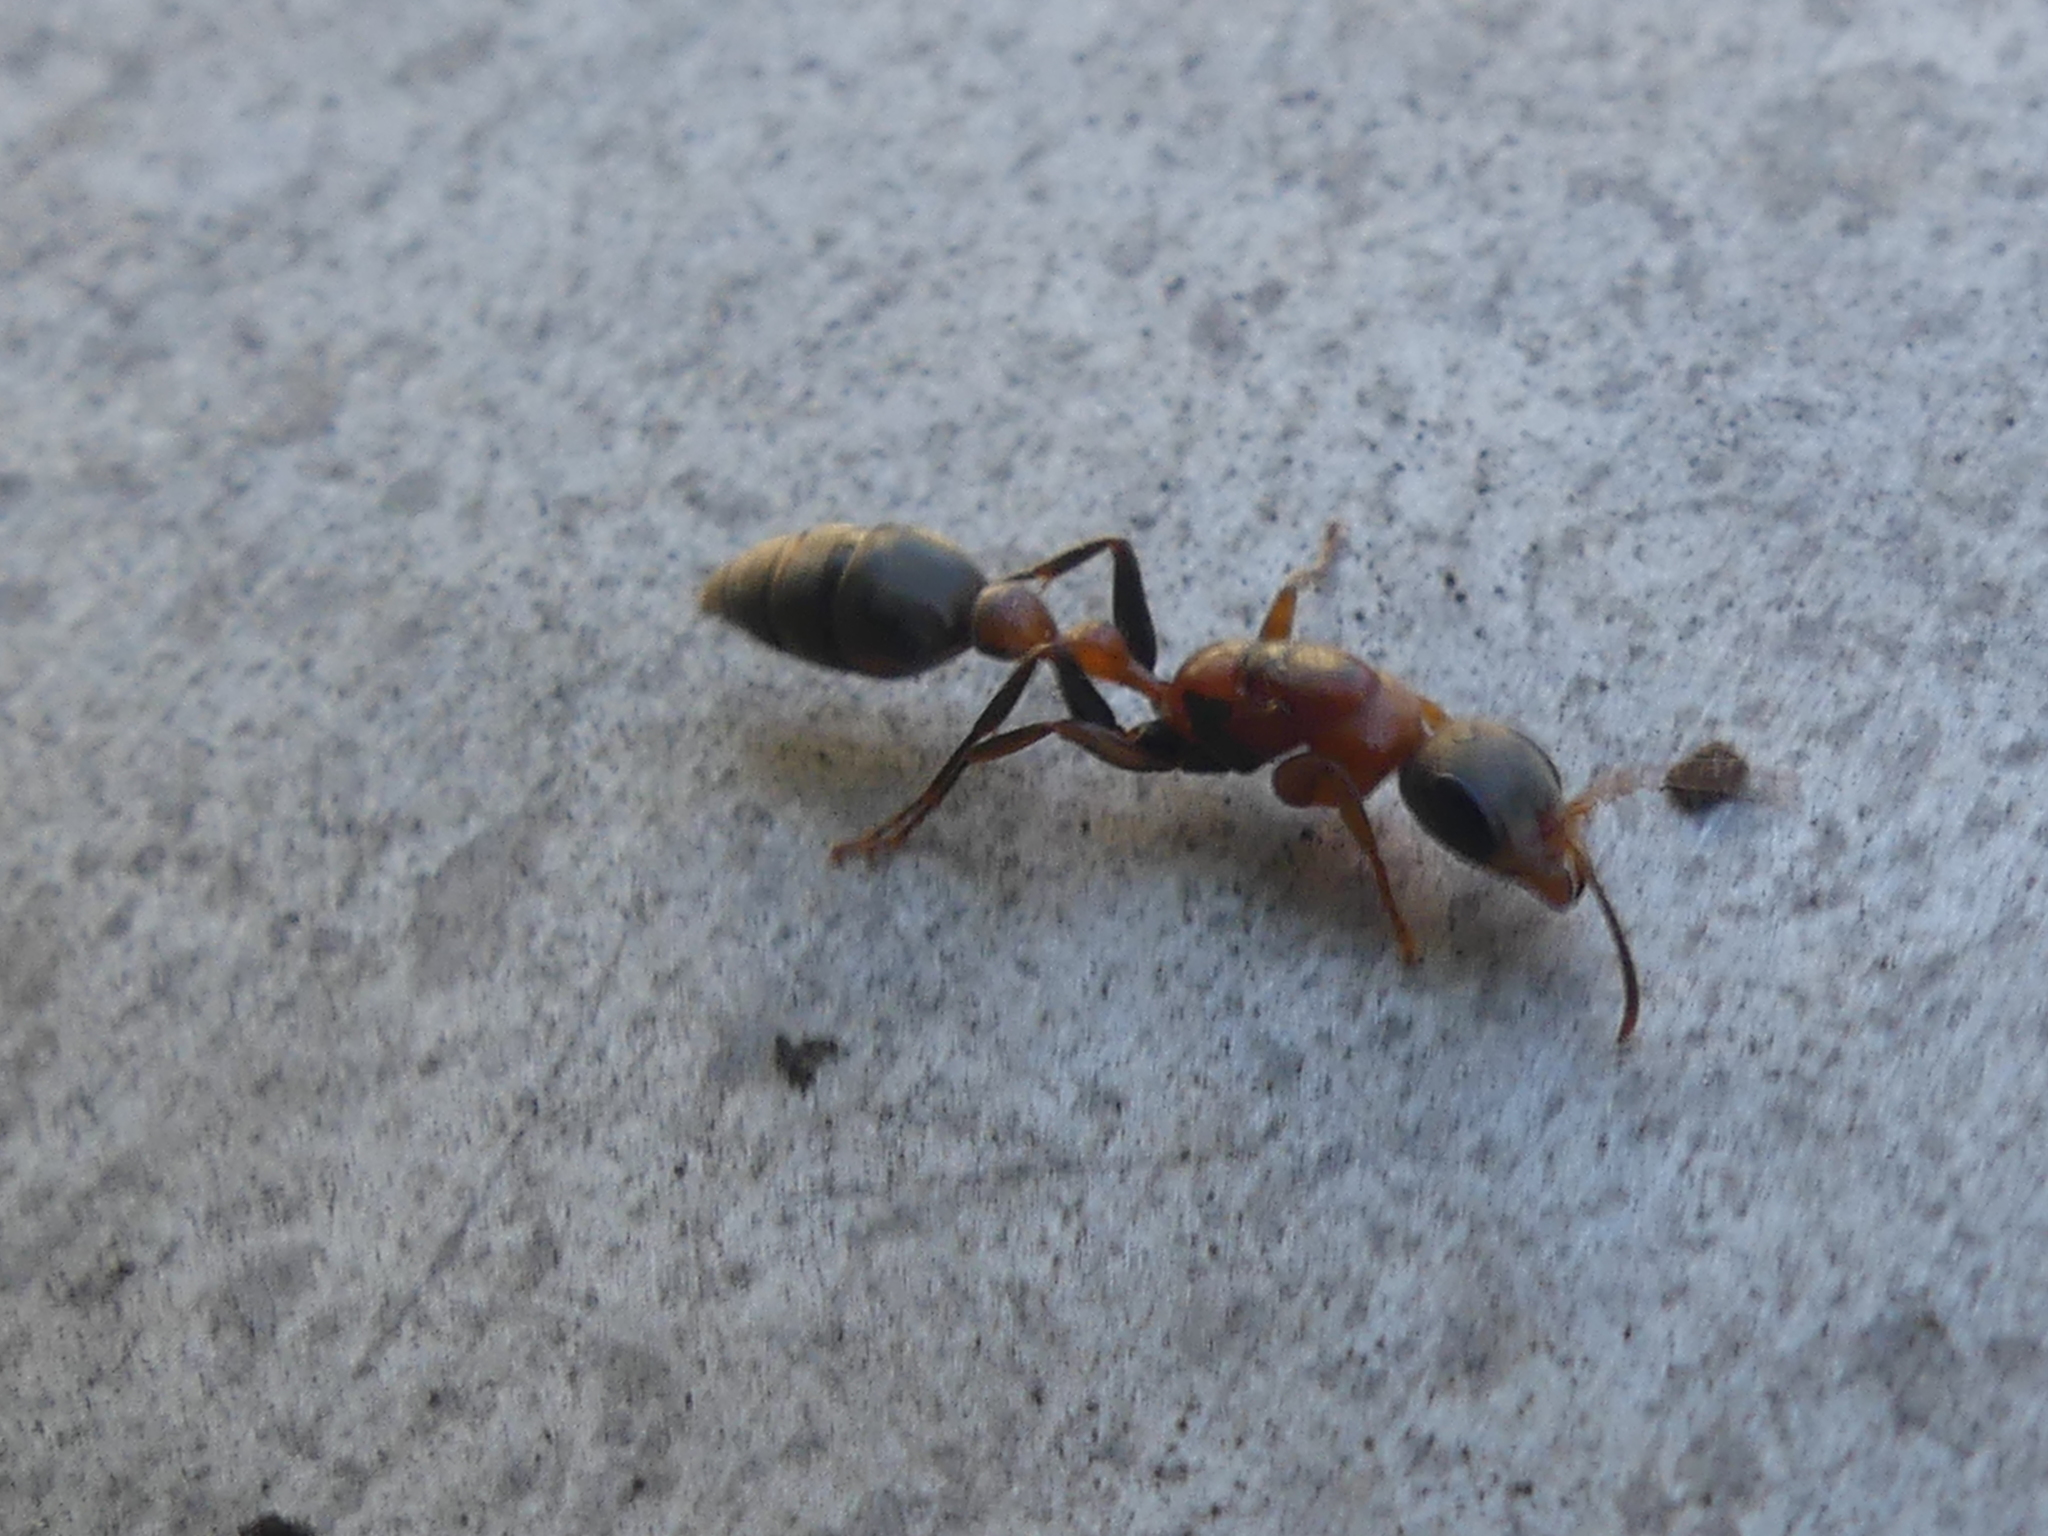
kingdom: Animalia
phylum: Arthropoda
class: Insecta
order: Hymenoptera
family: Formicidae
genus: Pseudomyrmex
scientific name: Pseudomyrmex gracilis
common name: Graceful twig ant
